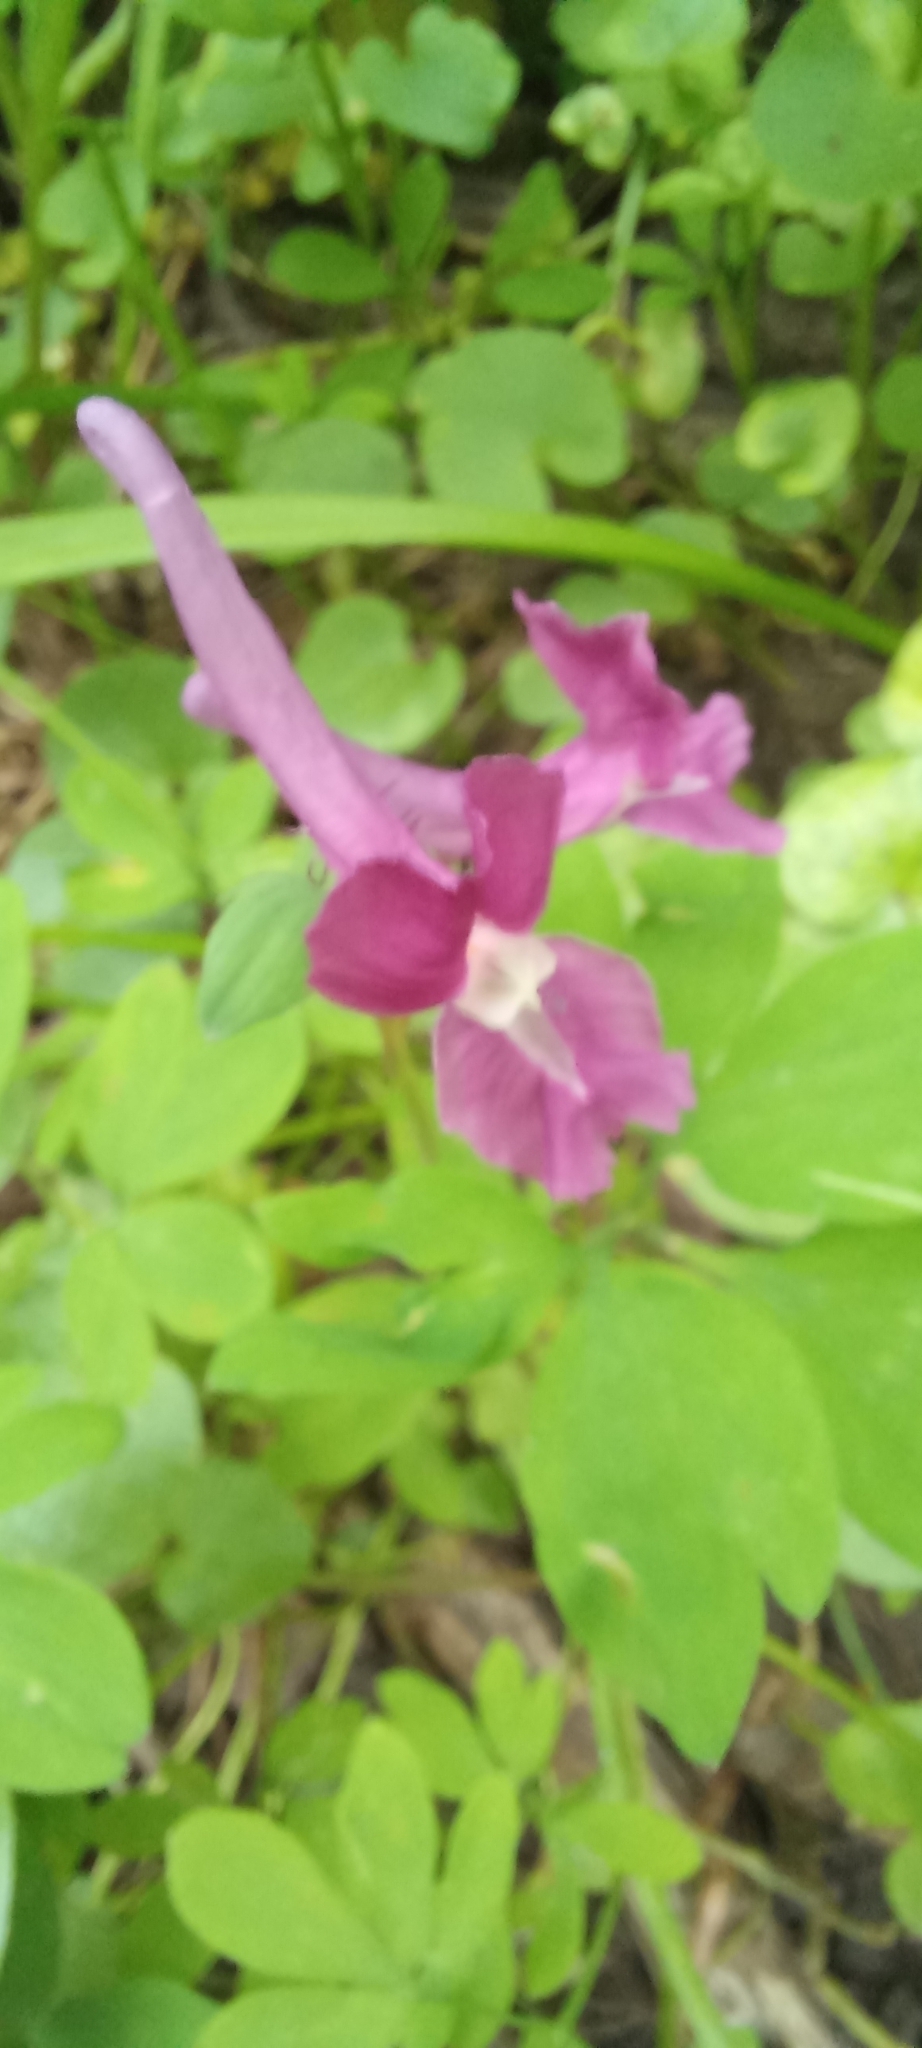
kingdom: Plantae
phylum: Tracheophyta
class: Magnoliopsida
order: Ranunculales
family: Papaveraceae
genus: Corydalis
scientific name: Corydalis caucasica
